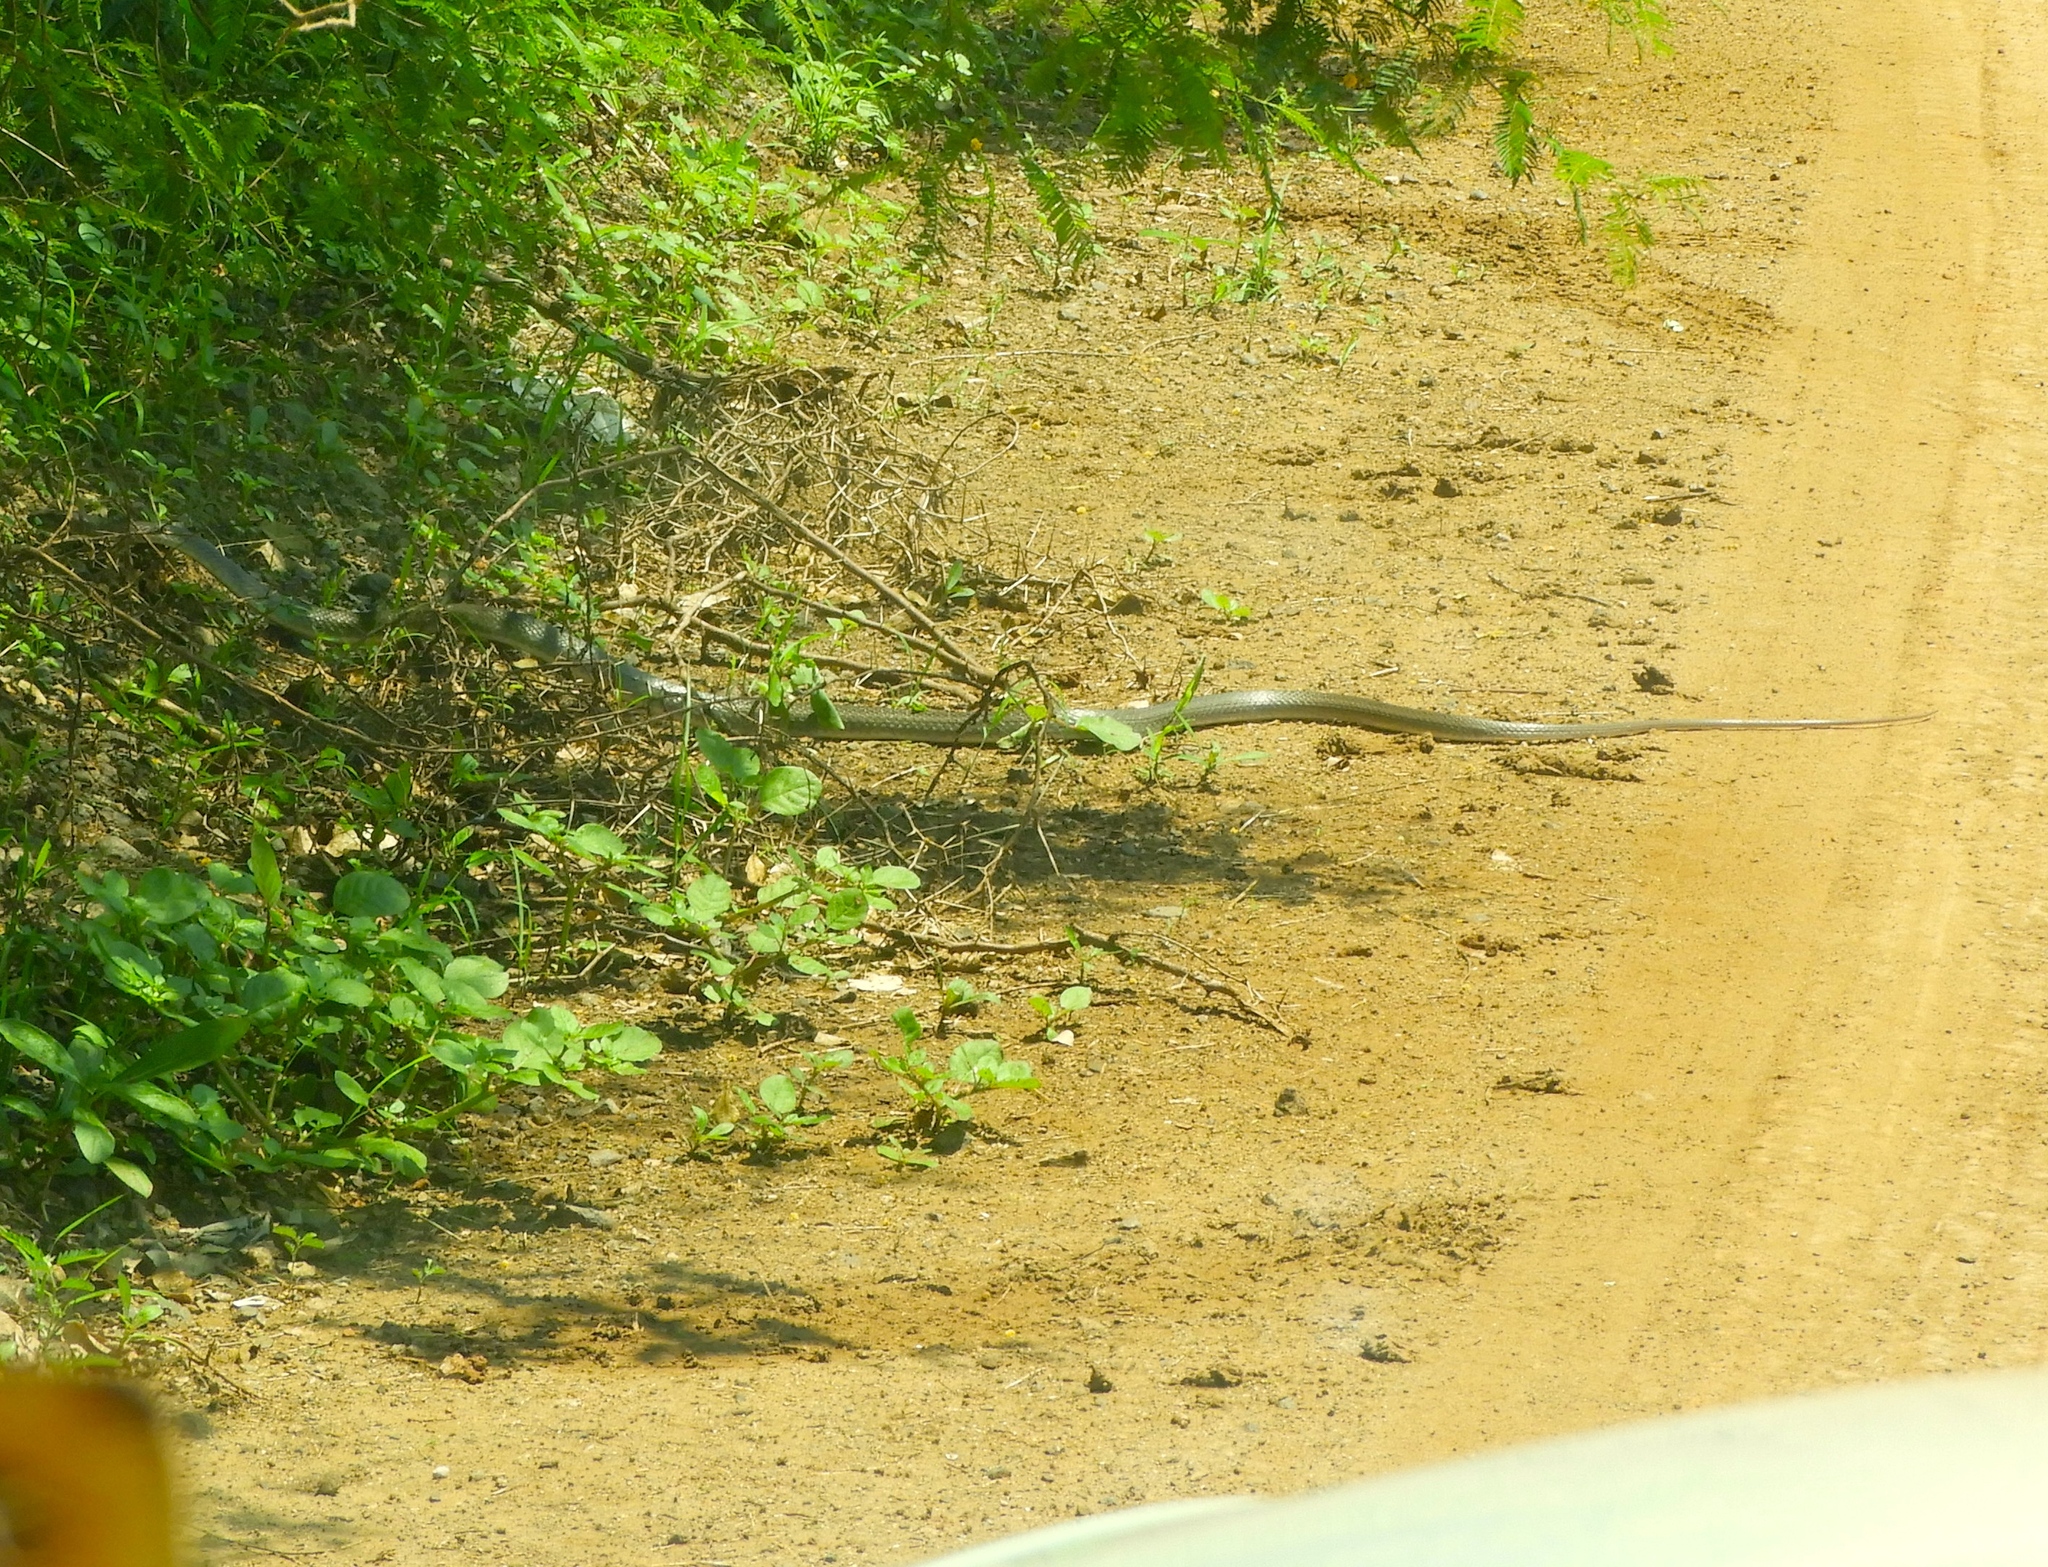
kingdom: Animalia
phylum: Chordata
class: Squamata
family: Colubridae
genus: Masticophis
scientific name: Masticophis mentovarius
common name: Neotropical whip snake
